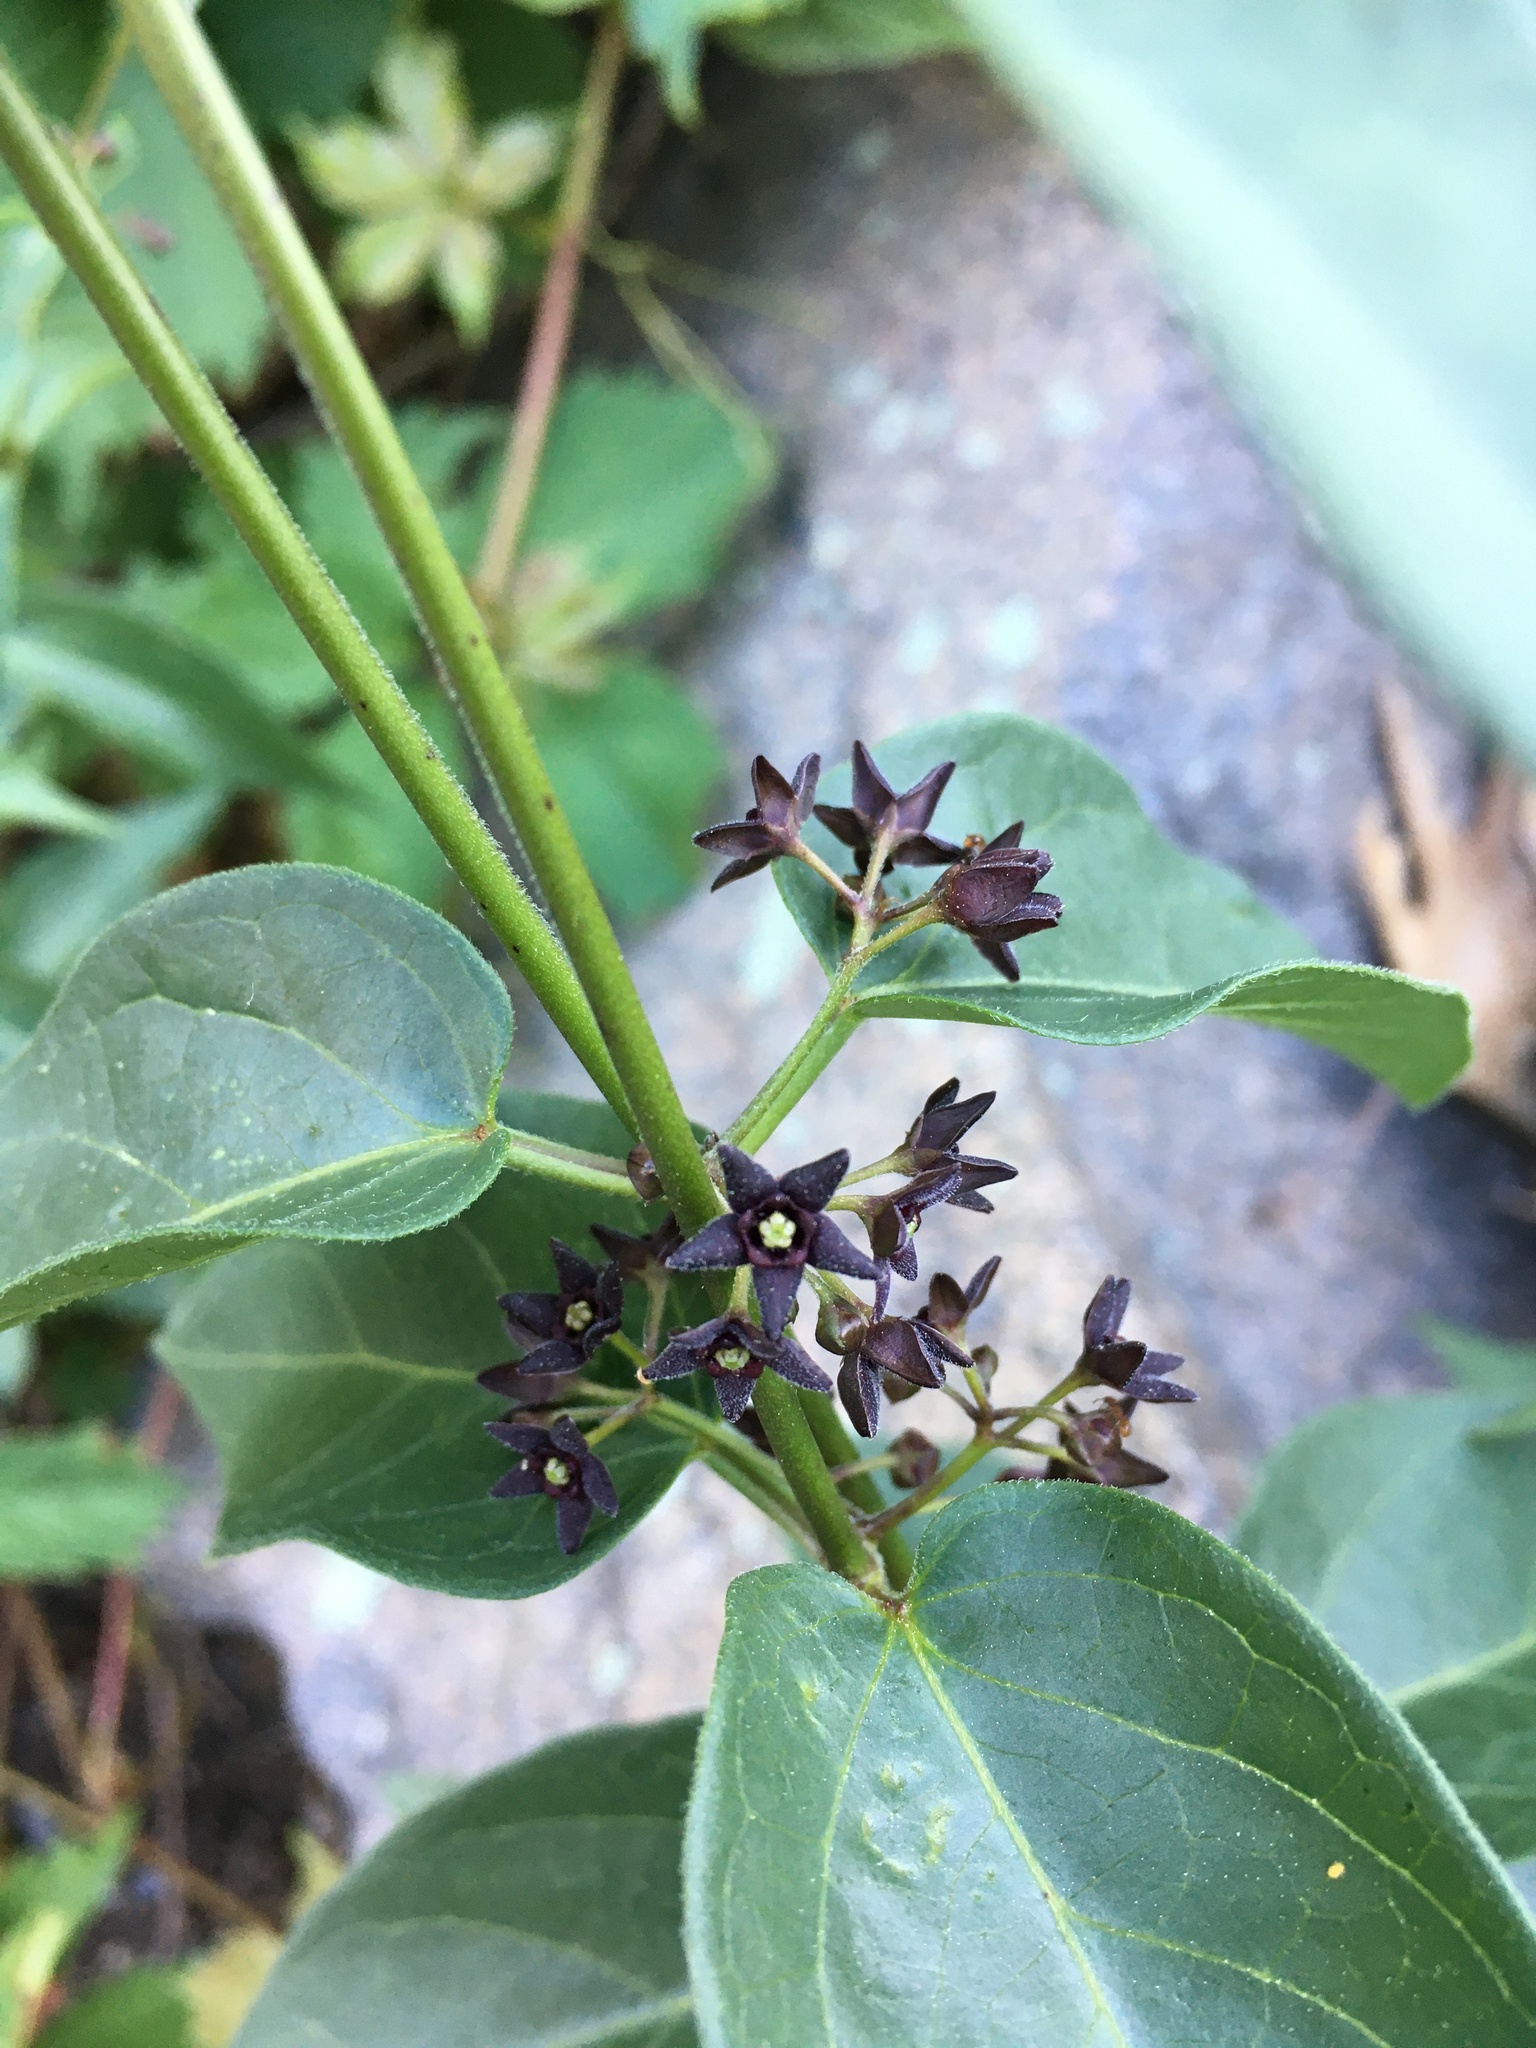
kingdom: Plantae
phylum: Tracheophyta
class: Magnoliopsida
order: Gentianales
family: Apocynaceae
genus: Vincetoxicum
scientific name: Vincetoxicum nigrum
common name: Black swallow-wort
